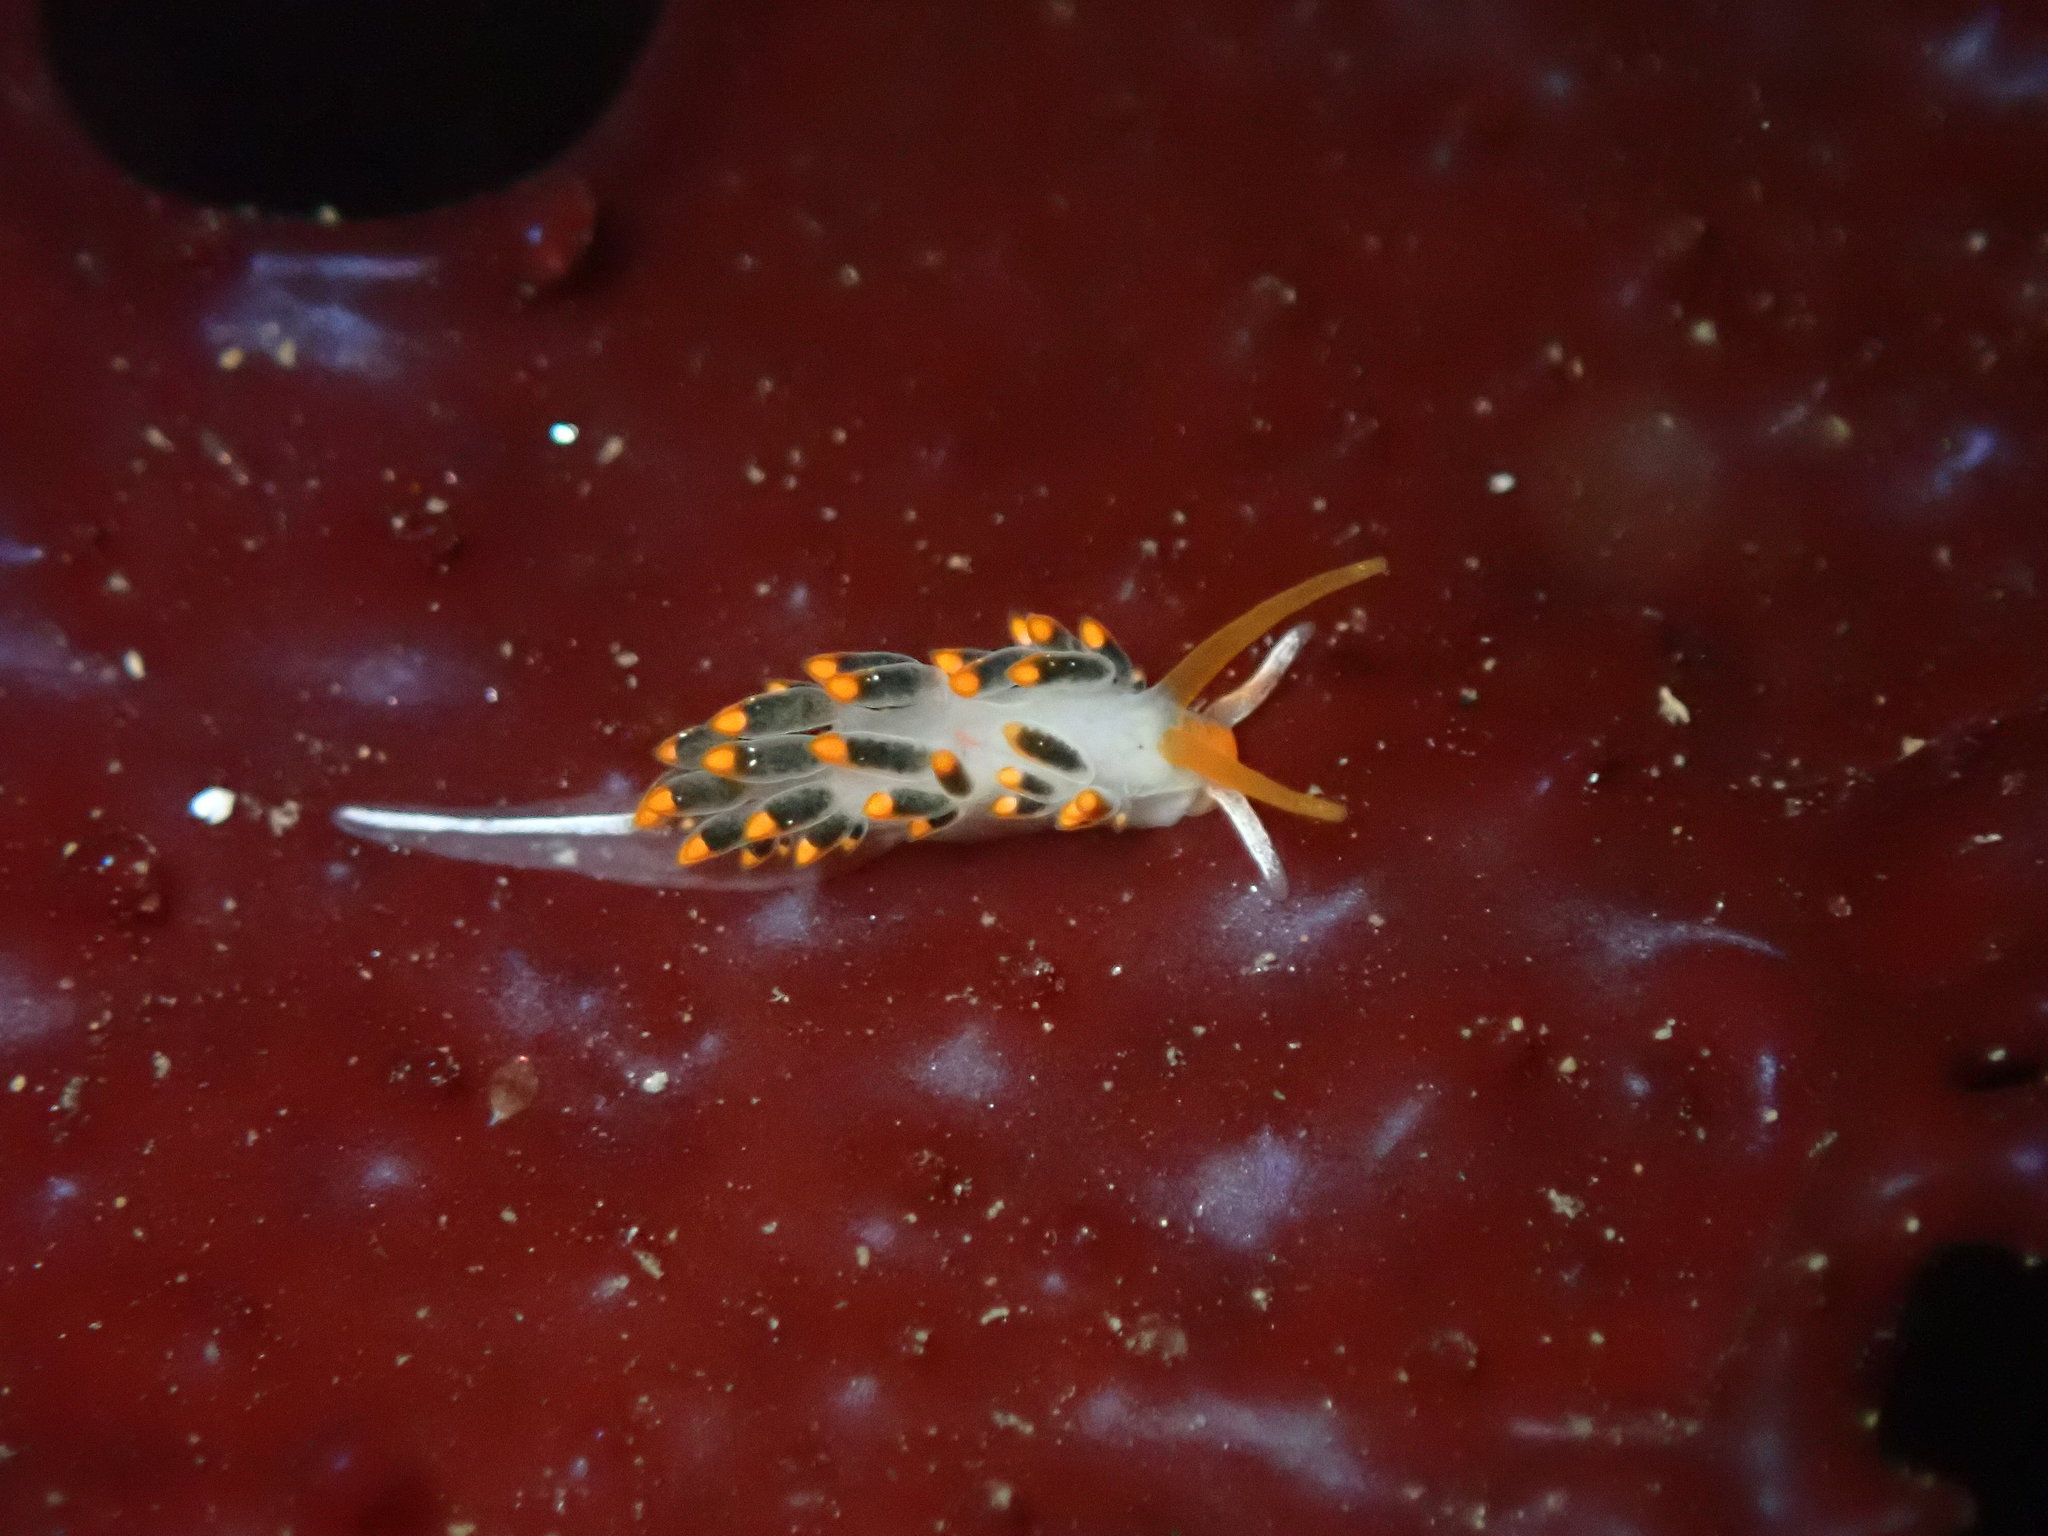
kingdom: Animalia
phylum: Mollusca
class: Gastropoda
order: Nudibranchia
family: Trinchesiidae
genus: Diaphoreolis
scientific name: Diaphoreolis lagunae
